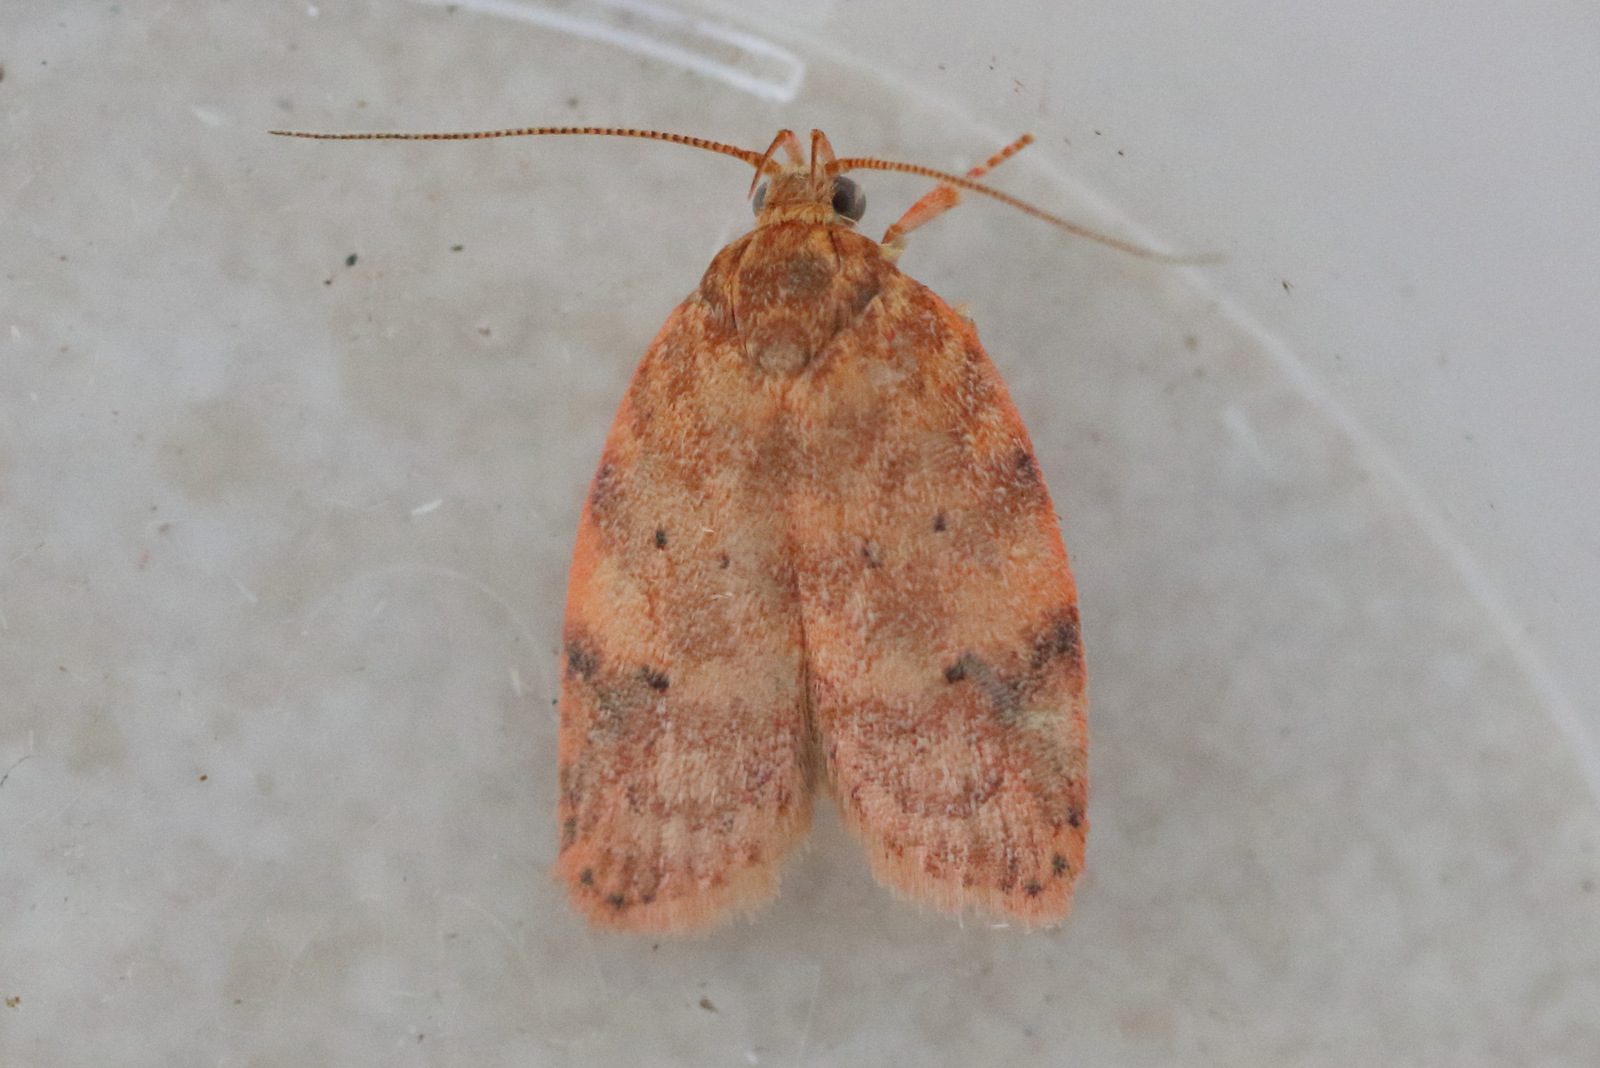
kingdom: Animalia
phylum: Arthropoda
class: Insecta
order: Lepidoptera
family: Oecophoridae
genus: Garrha
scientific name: Garrha costimacula
